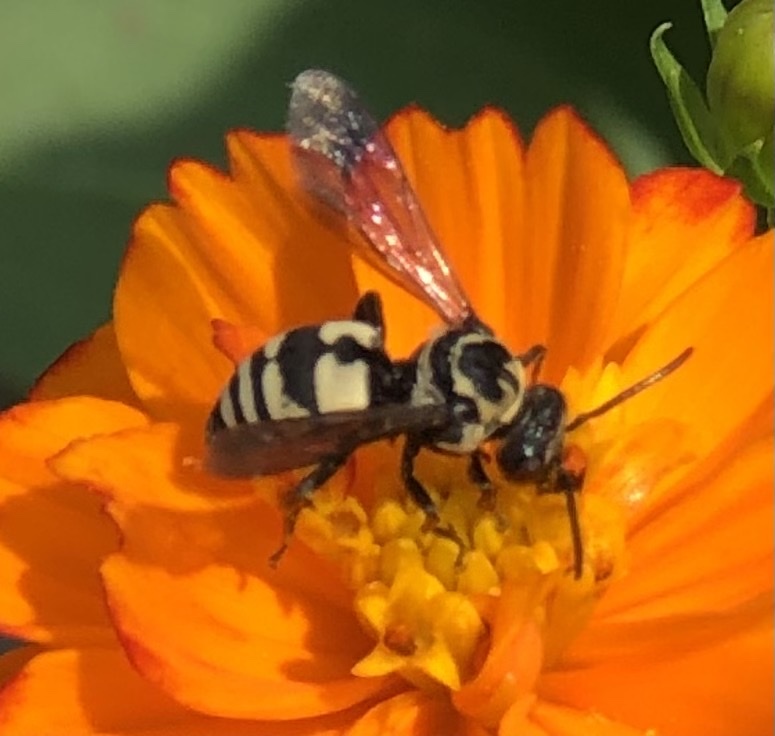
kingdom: Animalia
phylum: Arthropoda
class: Insecta
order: Hymenoptera
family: Apidae
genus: Triepeolus
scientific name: Triepeolus remigatus
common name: Squash longhorn-cuckoo
